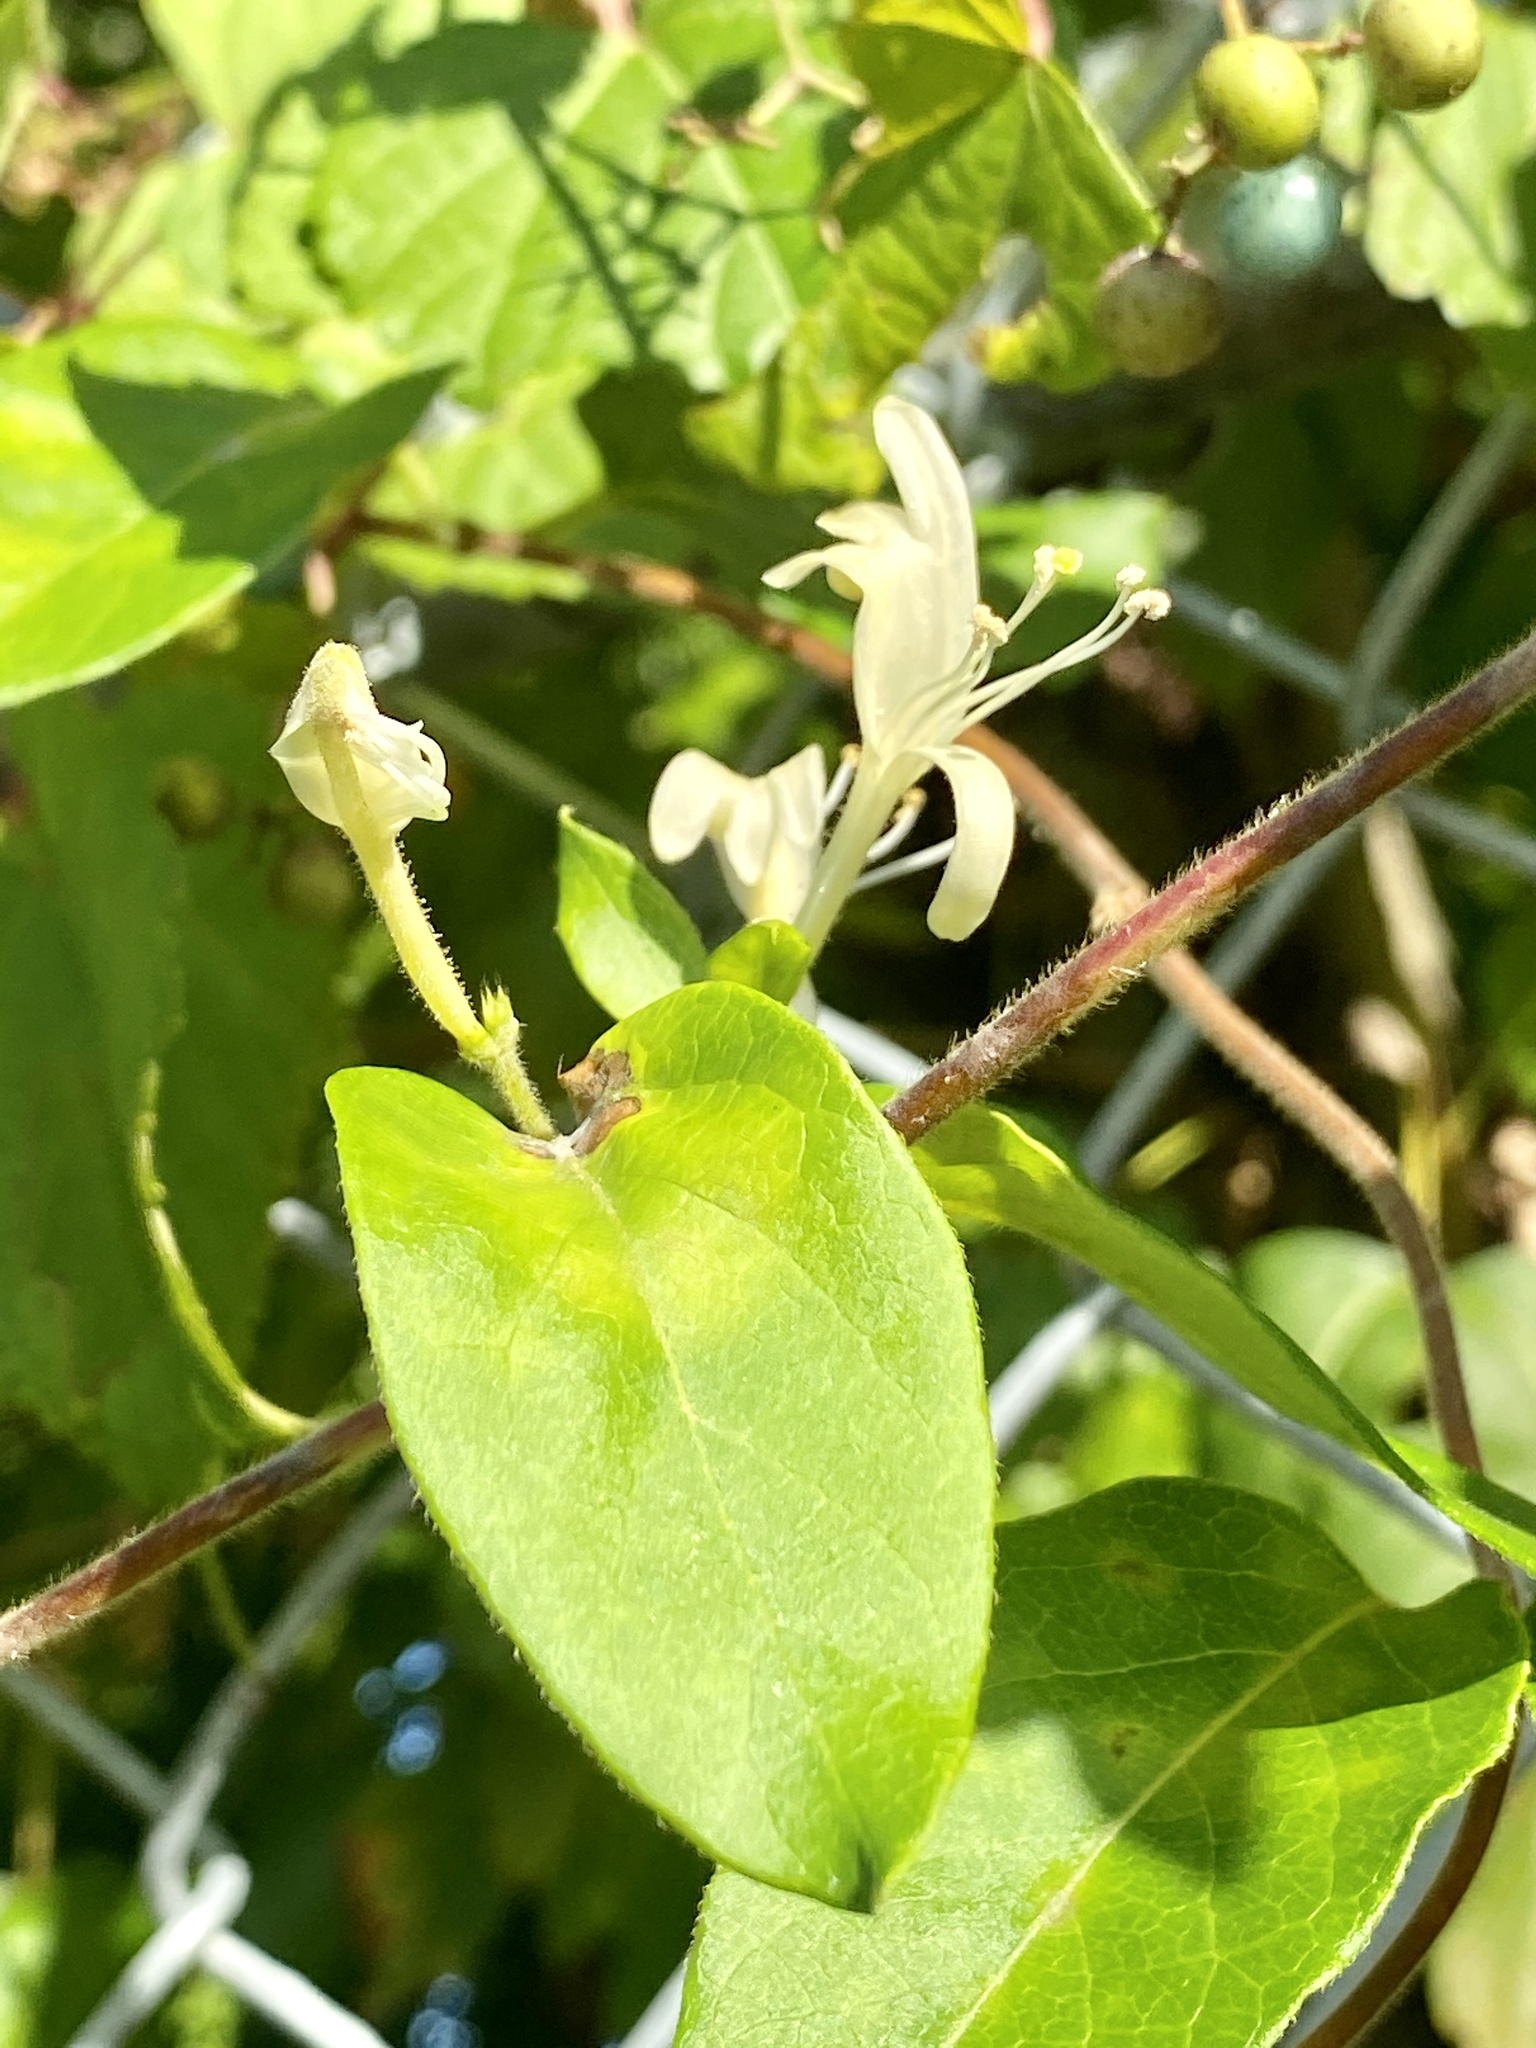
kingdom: Plantae
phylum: Tracheophyta
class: Magnoliopsida
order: Dipsacales
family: Caprifoliaceae
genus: Lonicera
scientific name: Lonicera japonica
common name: Japanese honeysuckle
